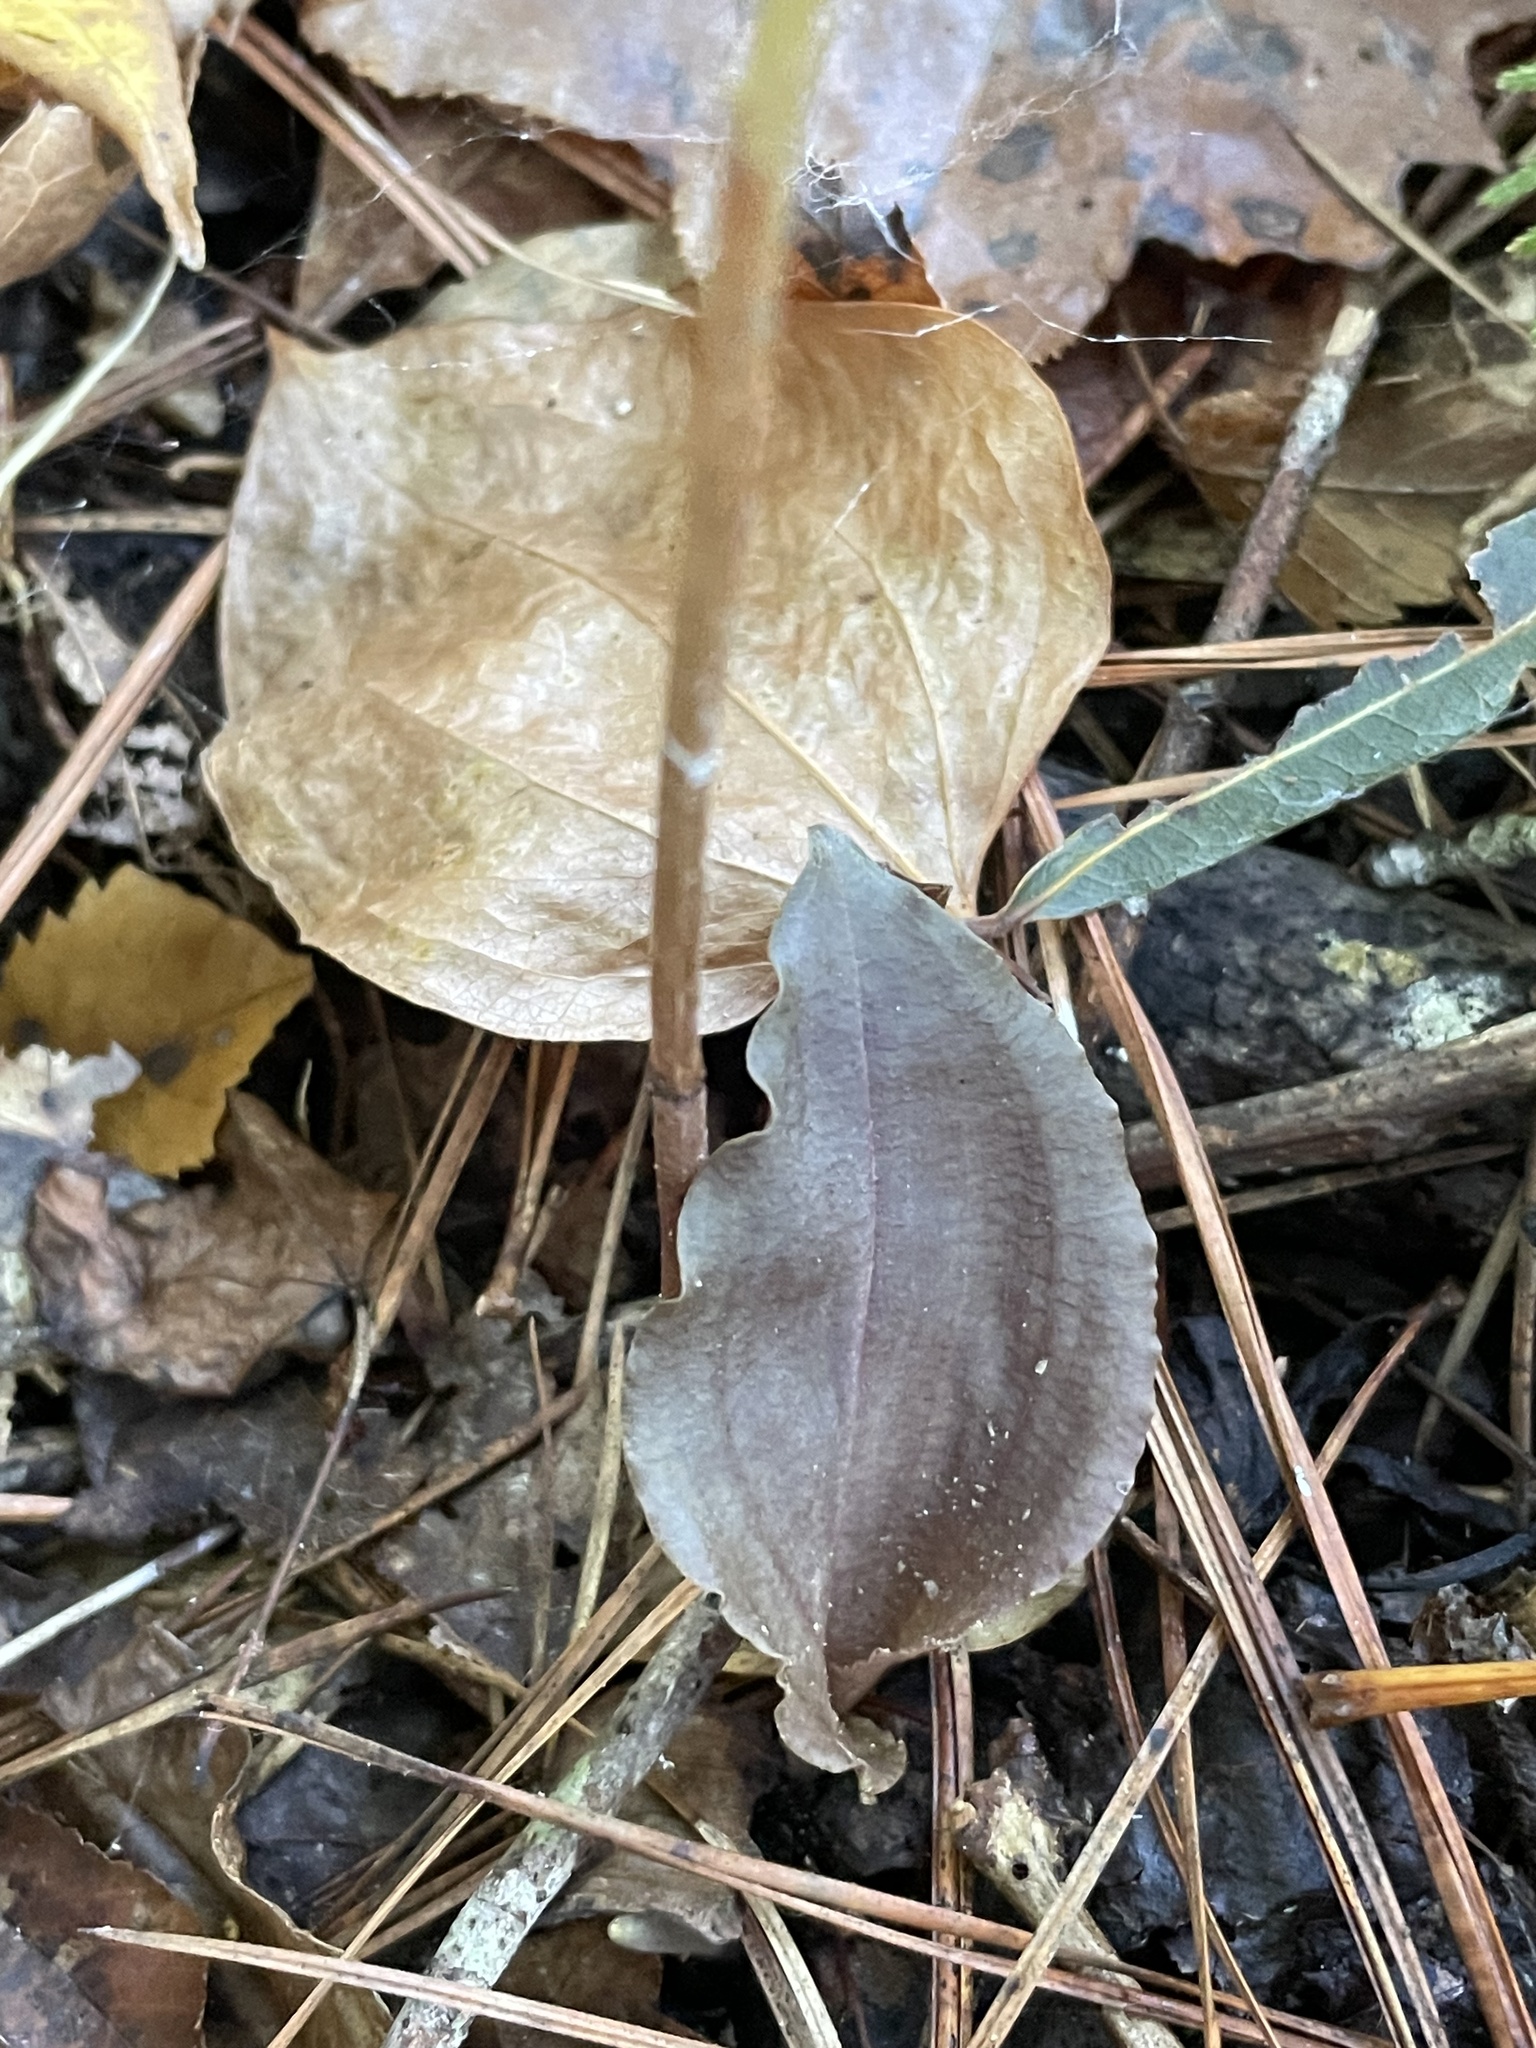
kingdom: Plantae
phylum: Tracheophyta
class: Liliopsida
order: Asparagales
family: Orchidaceae
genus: Tipularia
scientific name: Tipularia discolor
